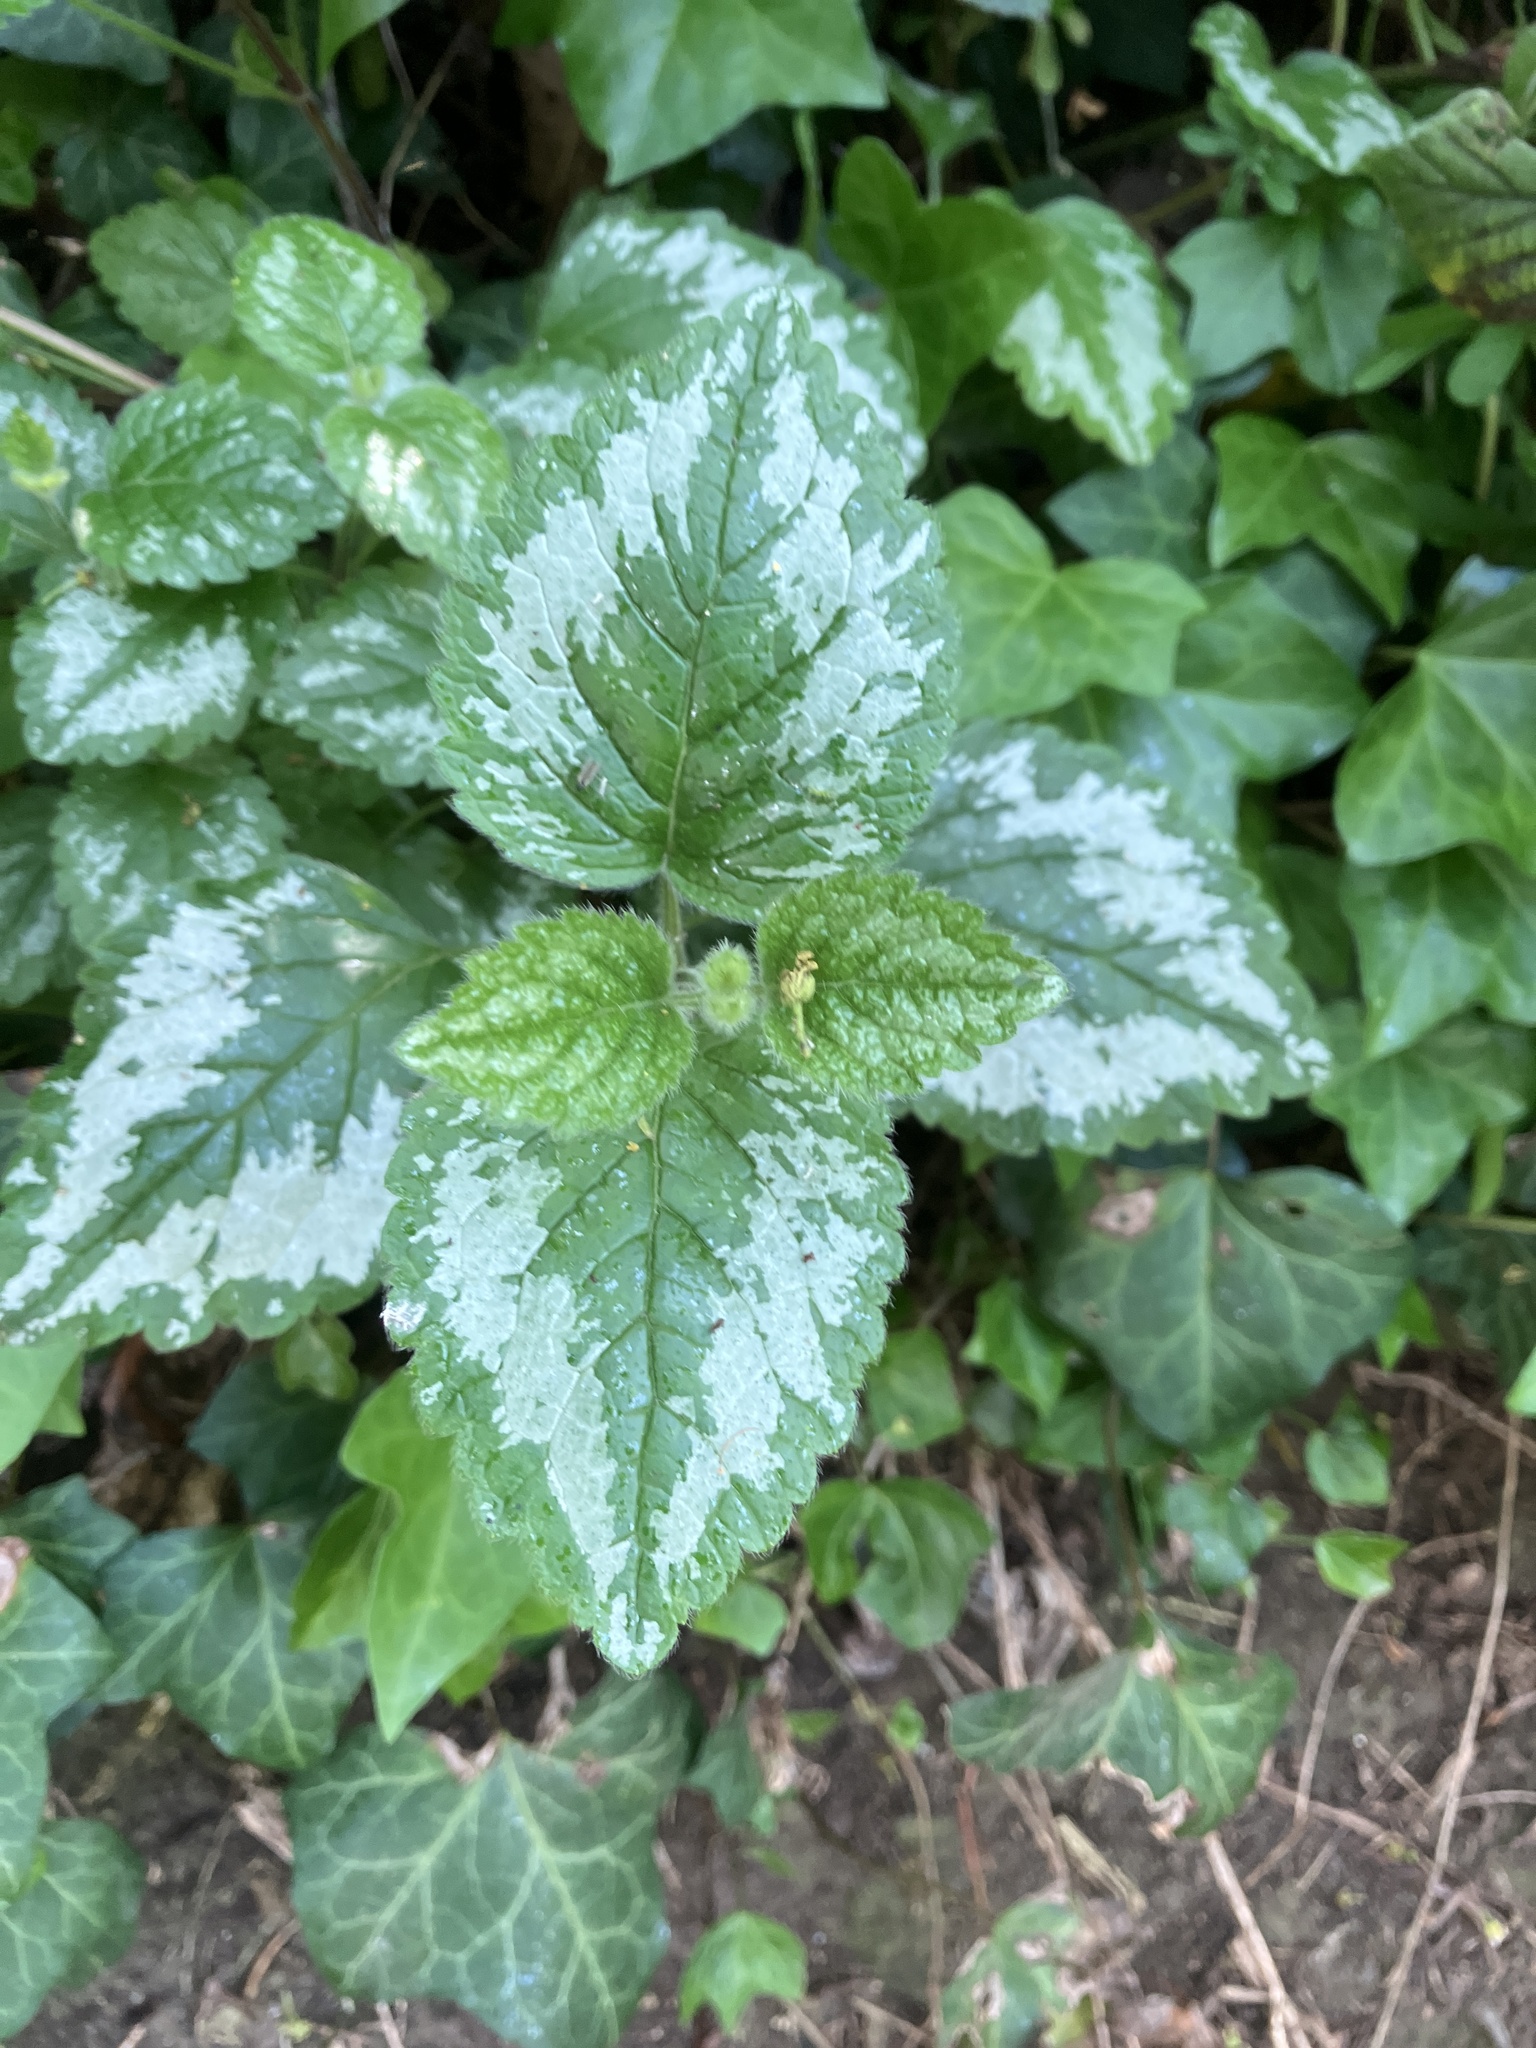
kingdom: Plantae
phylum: Tracheophyta
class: Magnoliopsida
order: Lamiales
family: Lamiaceae
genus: Lamium
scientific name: Lamium galeobdolon
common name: Yellow archangel
